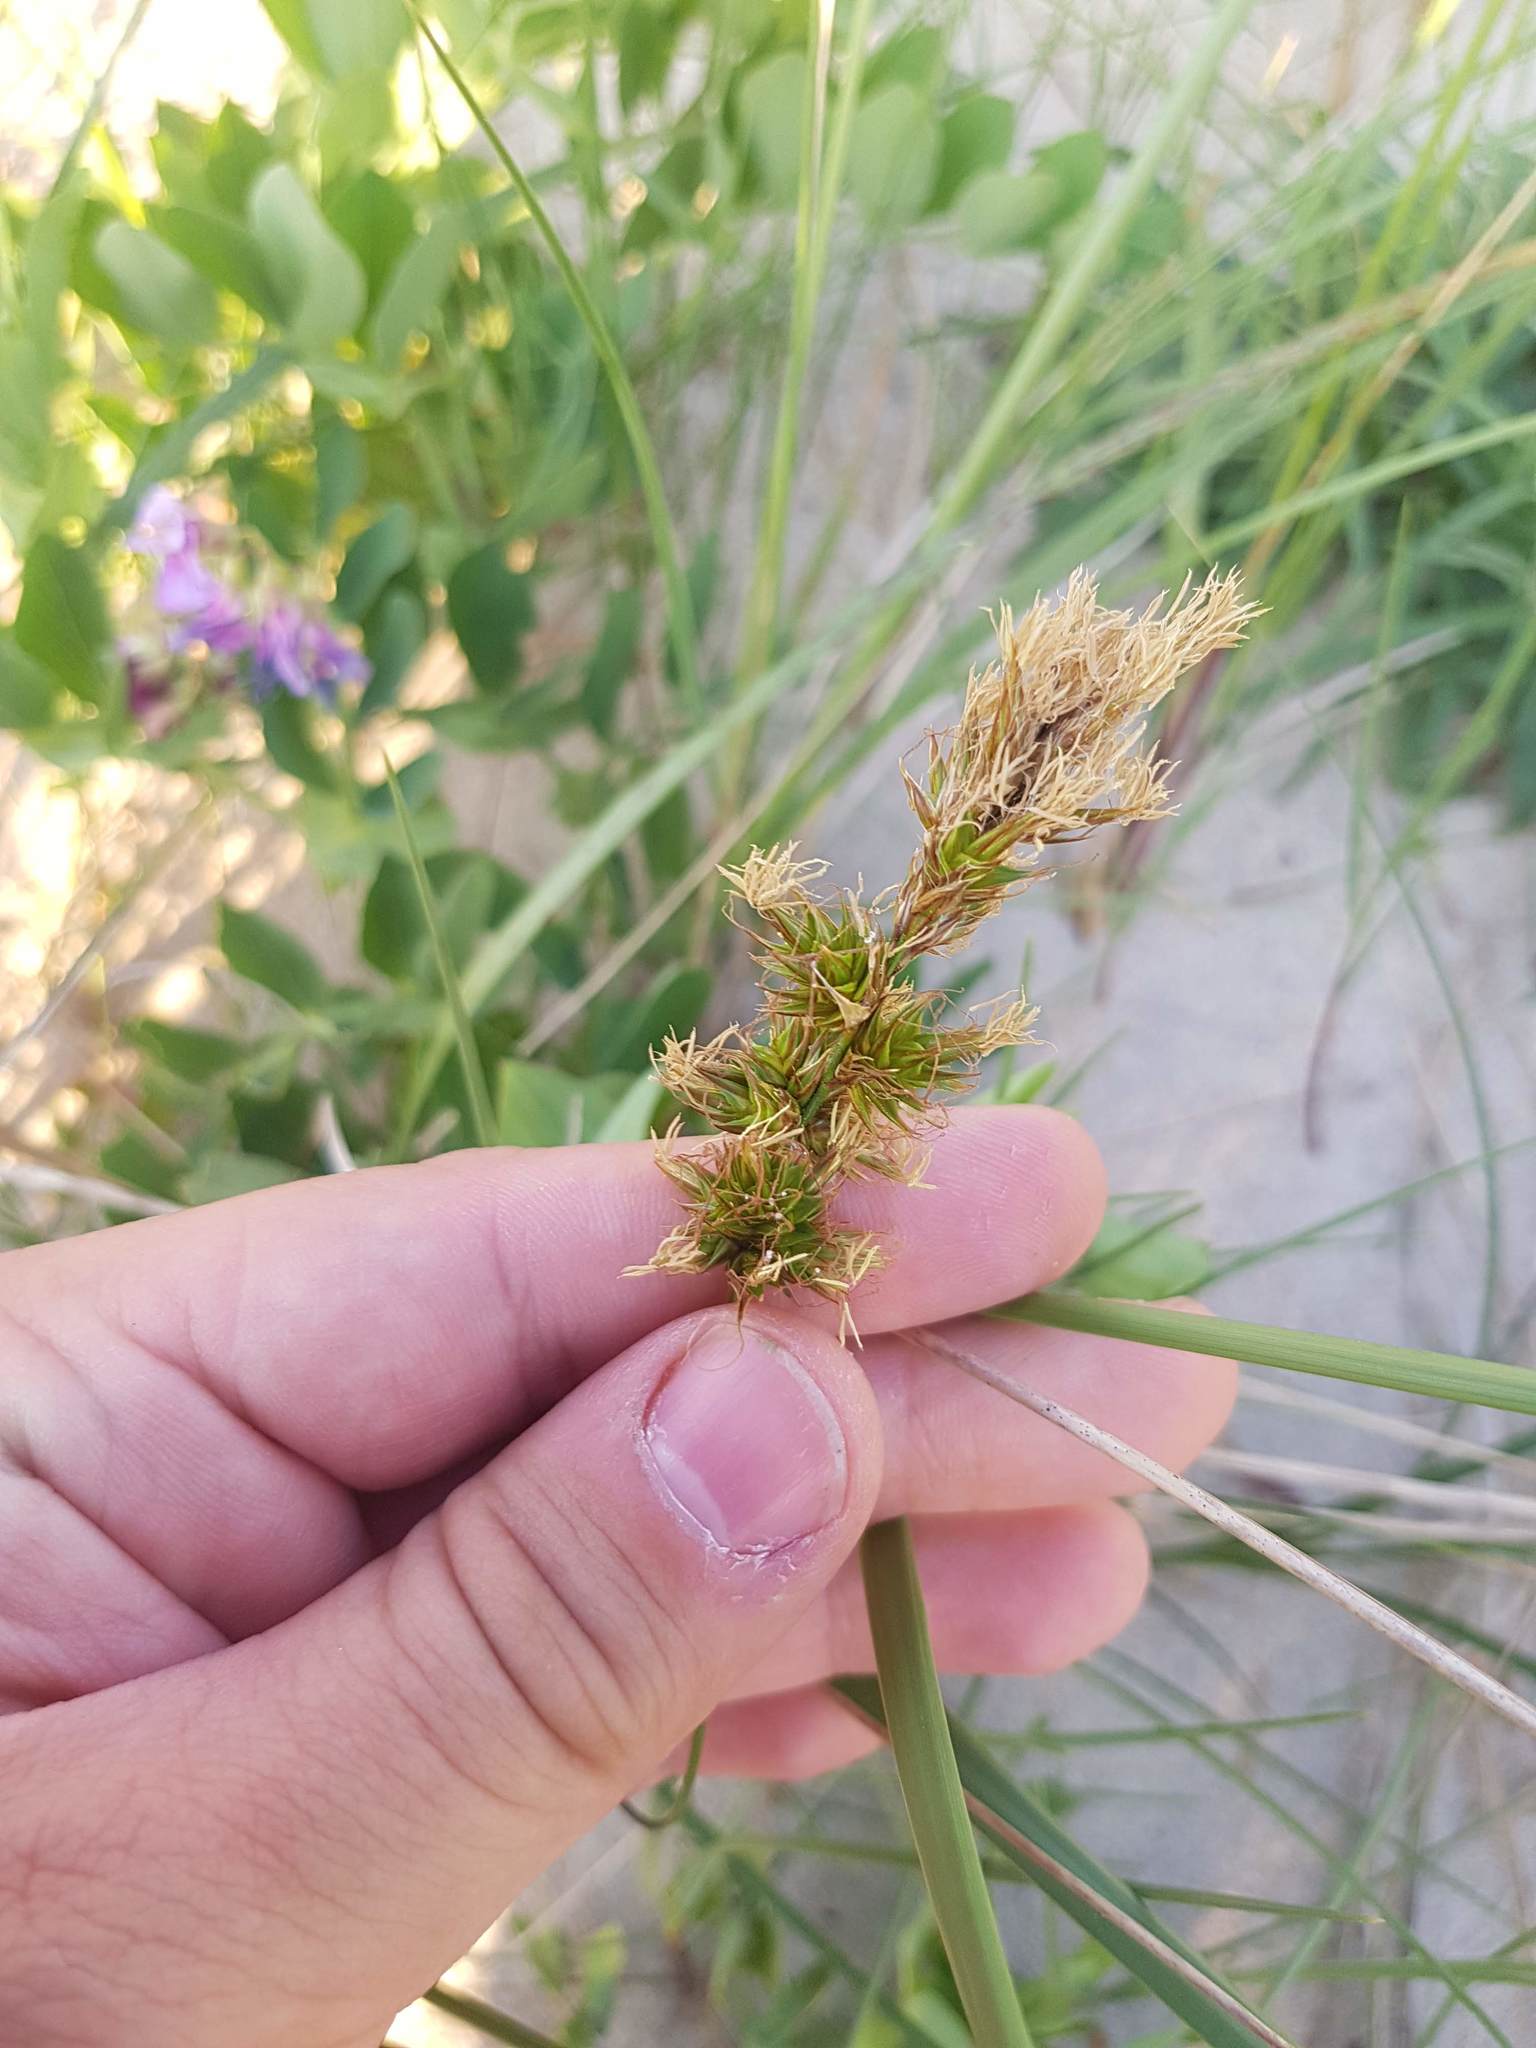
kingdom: Plantae
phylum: Tracheophyta
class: Liliopsida
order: Poales
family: Cyperaceae
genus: Carex
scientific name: Carex arenaria
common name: Sand sedge
